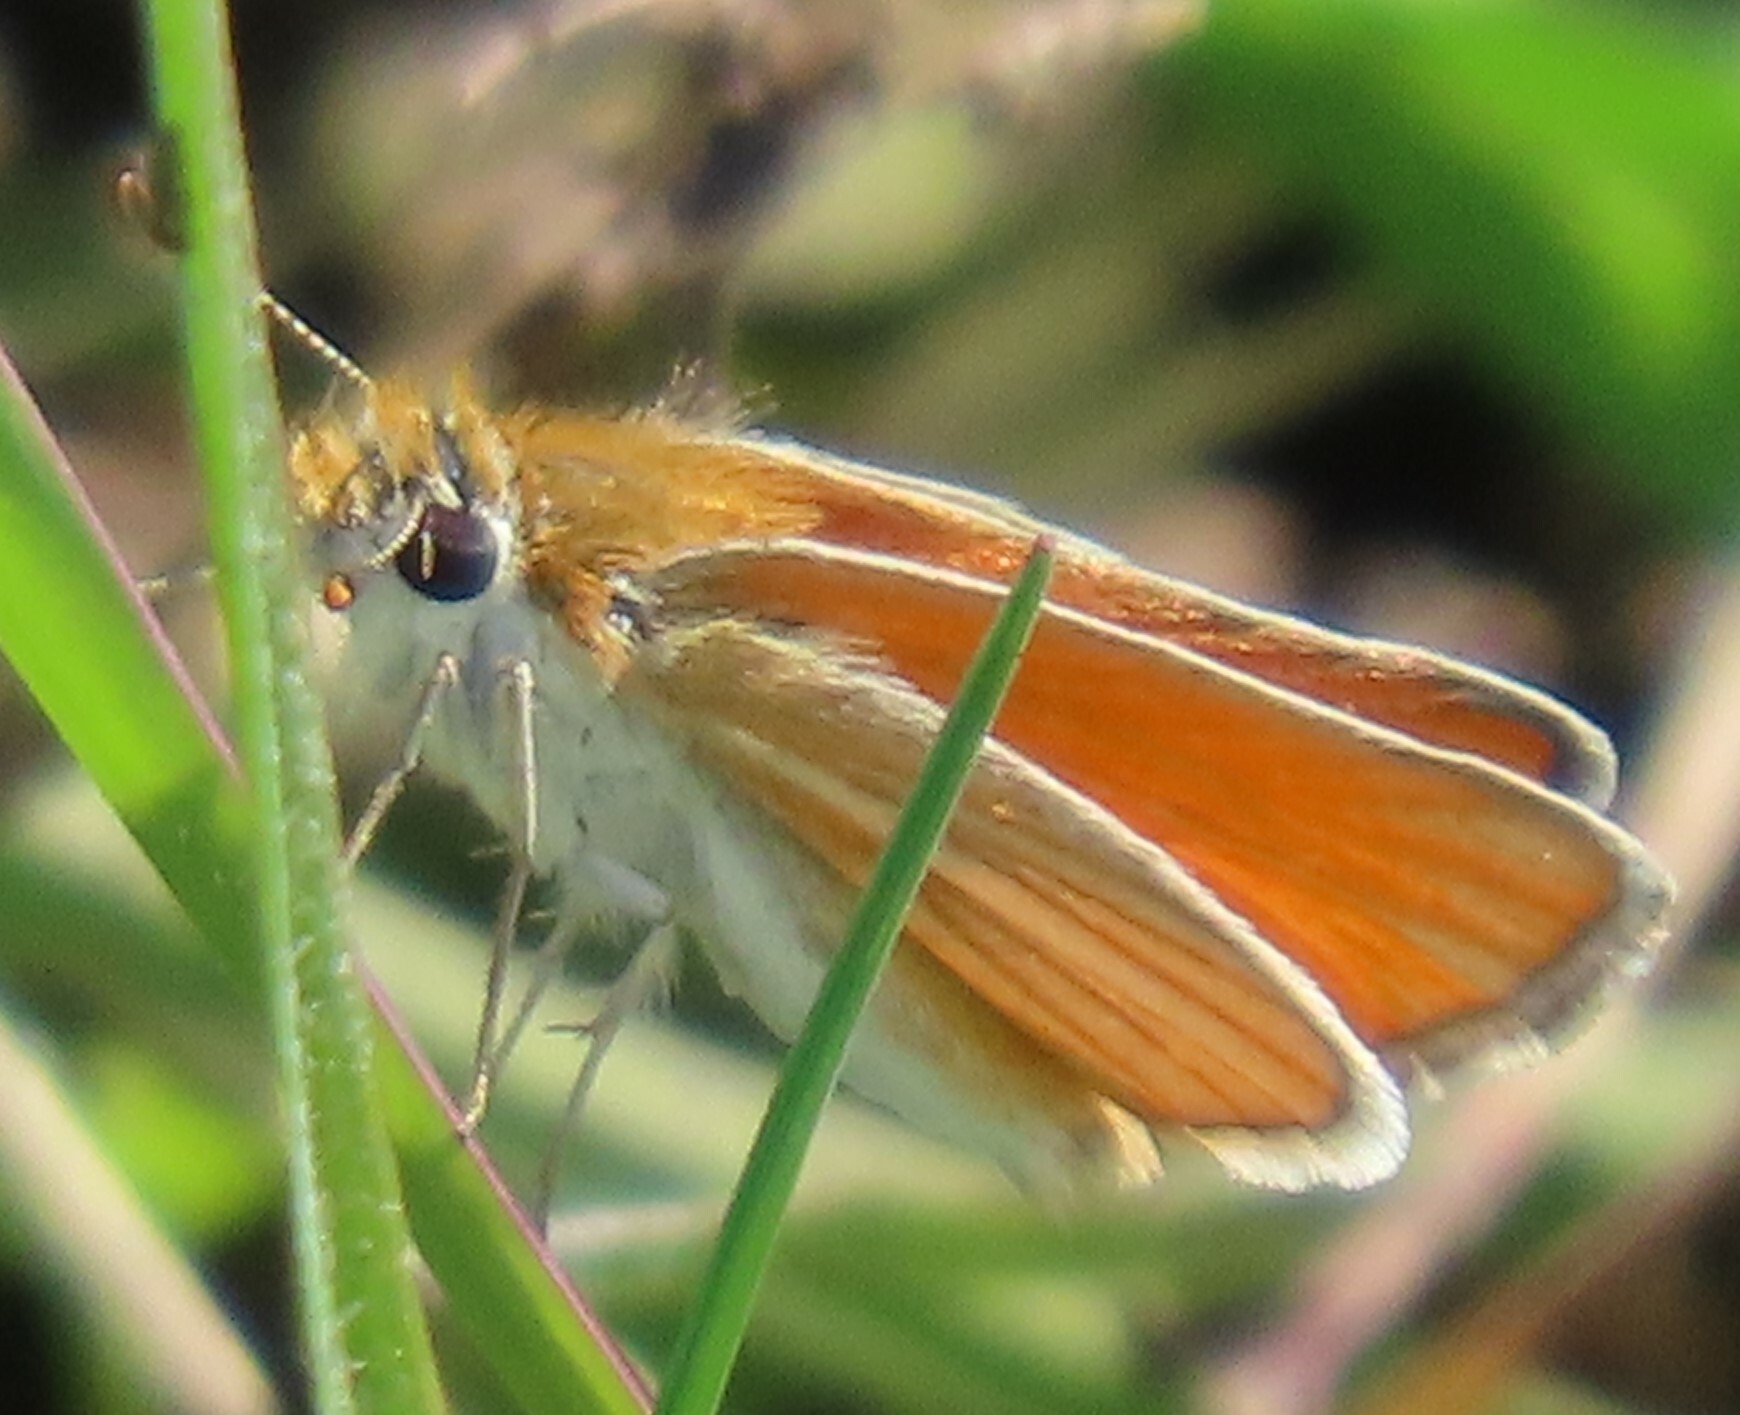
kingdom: Animalia
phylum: Arthropoda
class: Insecta
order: Lepidoptera
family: Hesperiidae
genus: Copaeodes
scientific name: Copaeodes minima
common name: Southern skipperling
